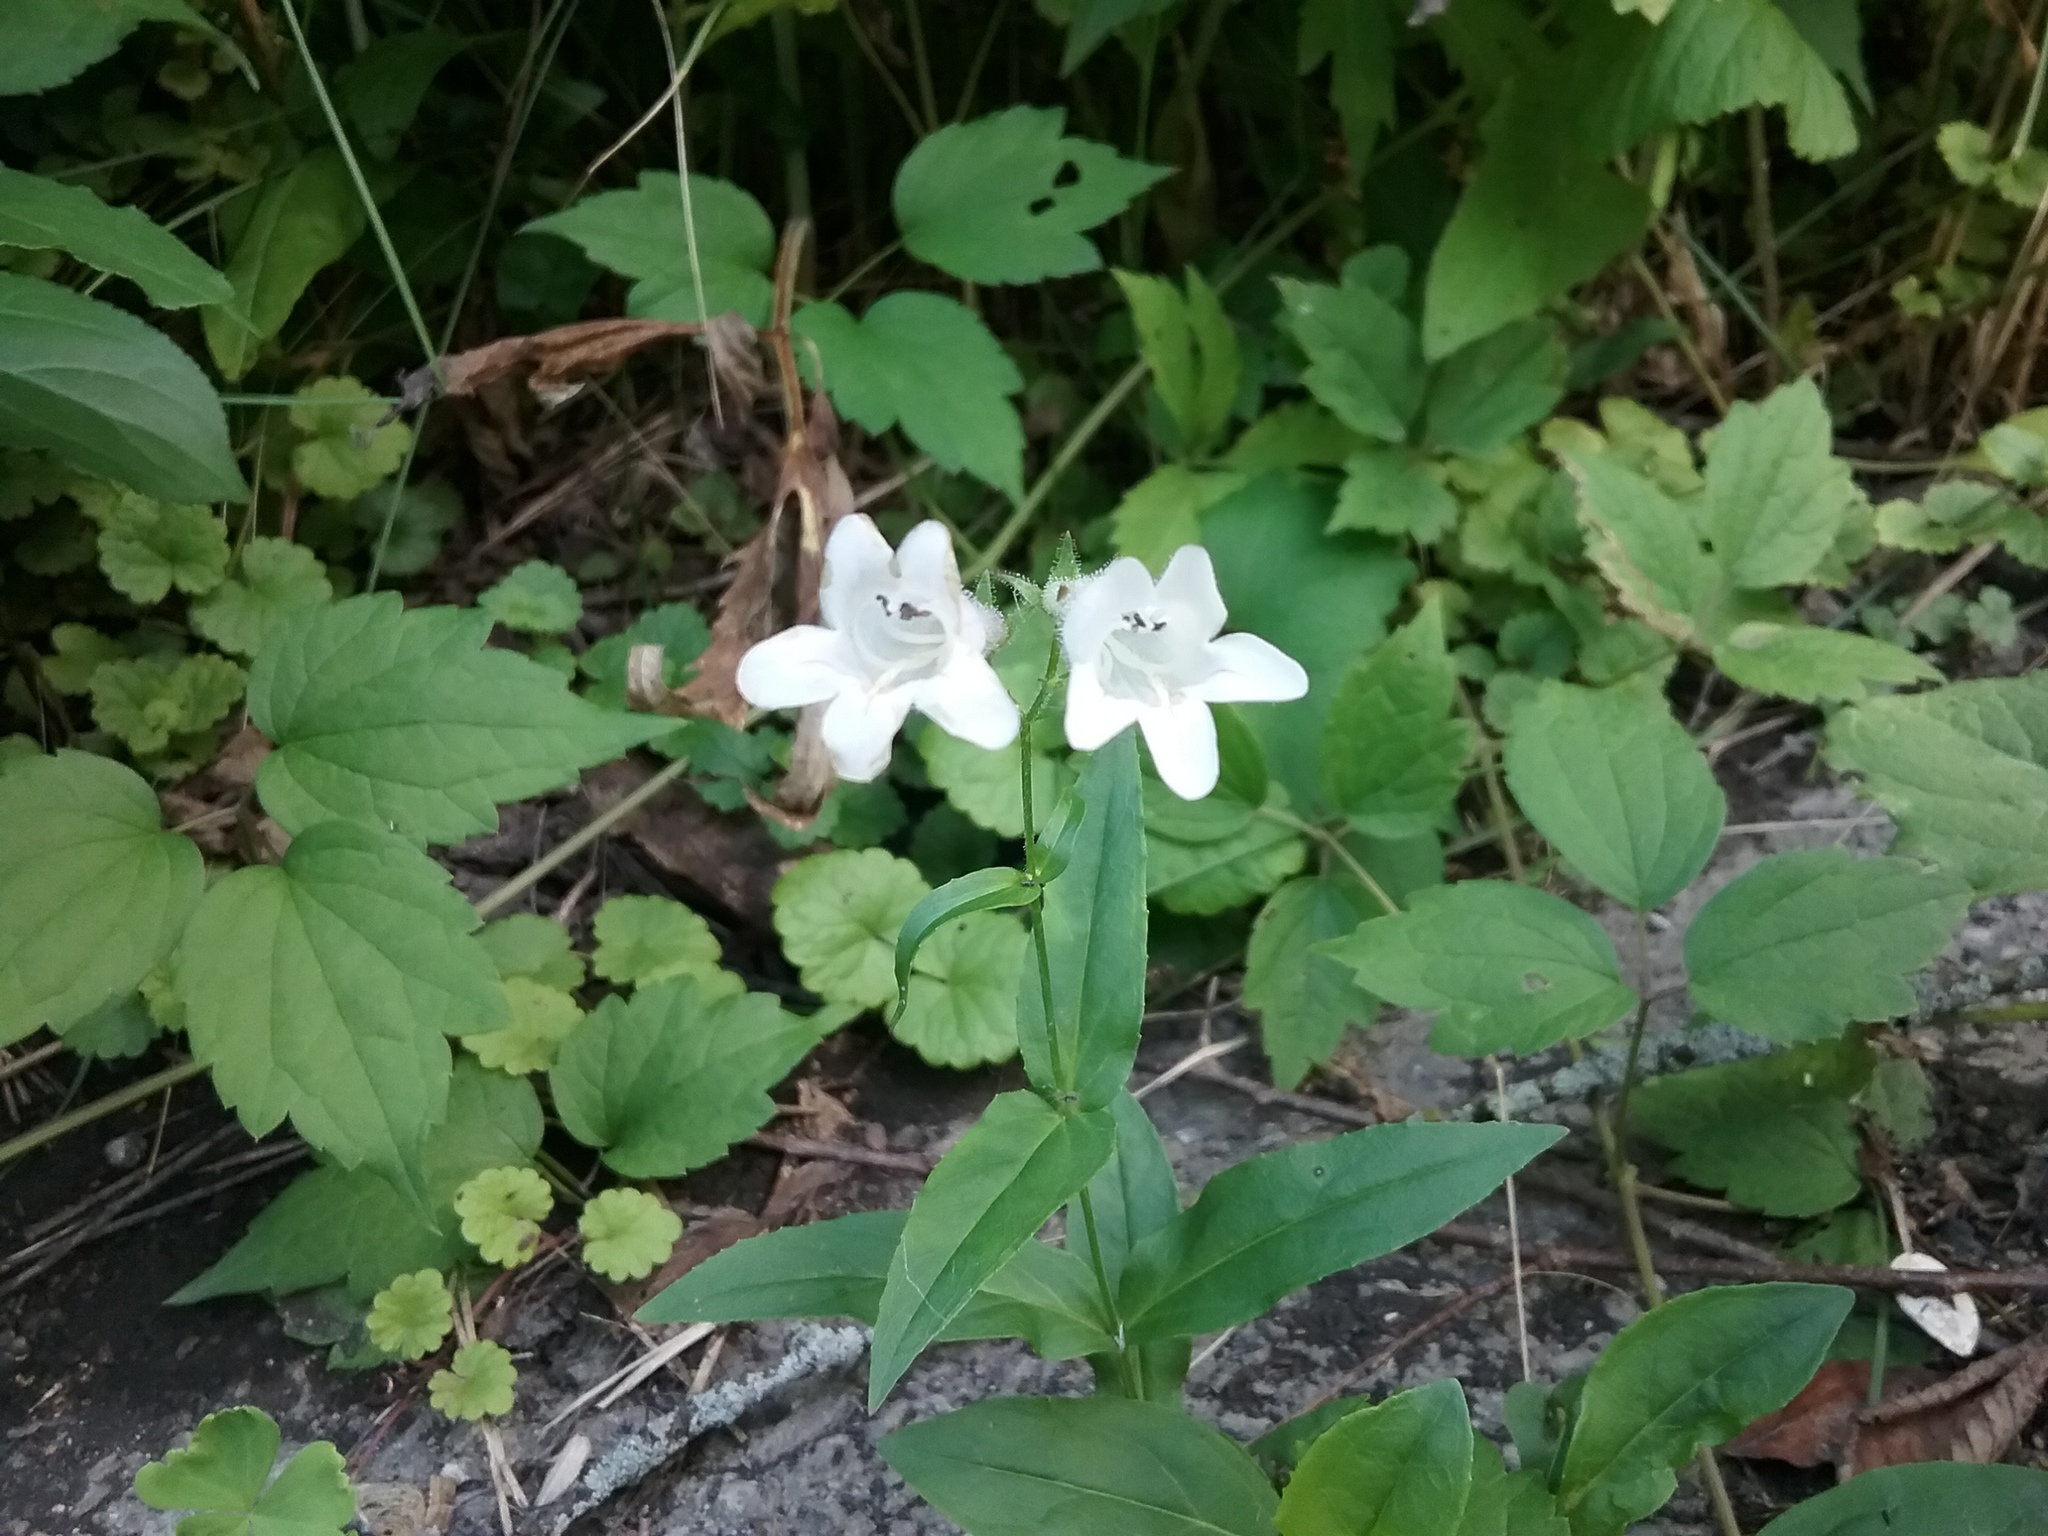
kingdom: Plantae
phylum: Tracheophyta
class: Magnoliopsida
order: Lamiales
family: Plantaginaceae
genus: Penstemon
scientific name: Penstemon digitalis
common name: Foxglove beardtongue
